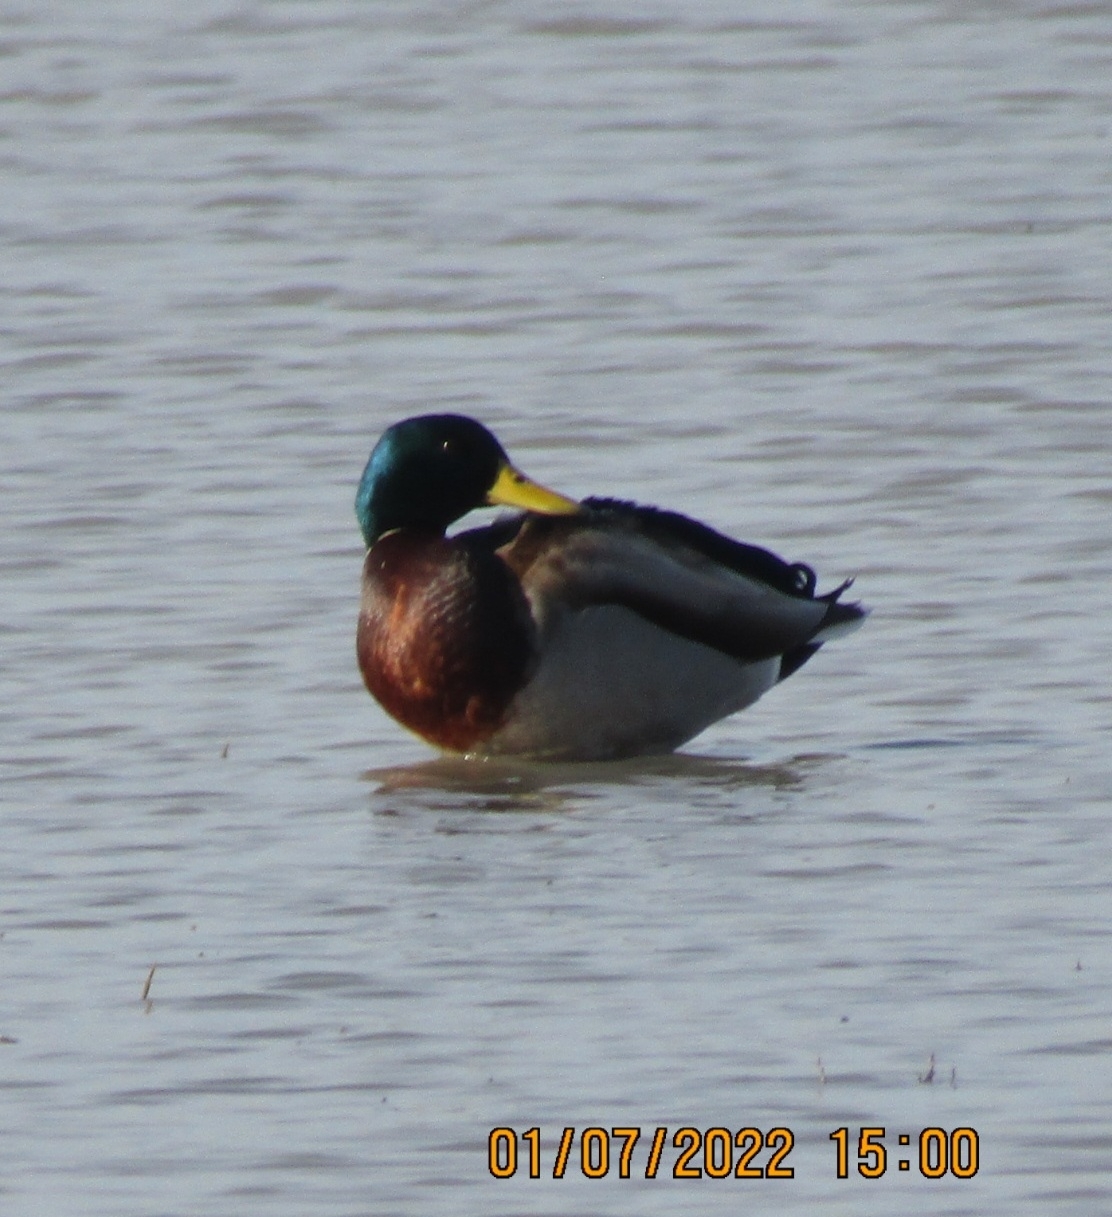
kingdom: Animalia
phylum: Chordata
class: Aves
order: Anseriformes
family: Anatidae
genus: Anas
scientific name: Anas platyrhynchos
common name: Mallard
